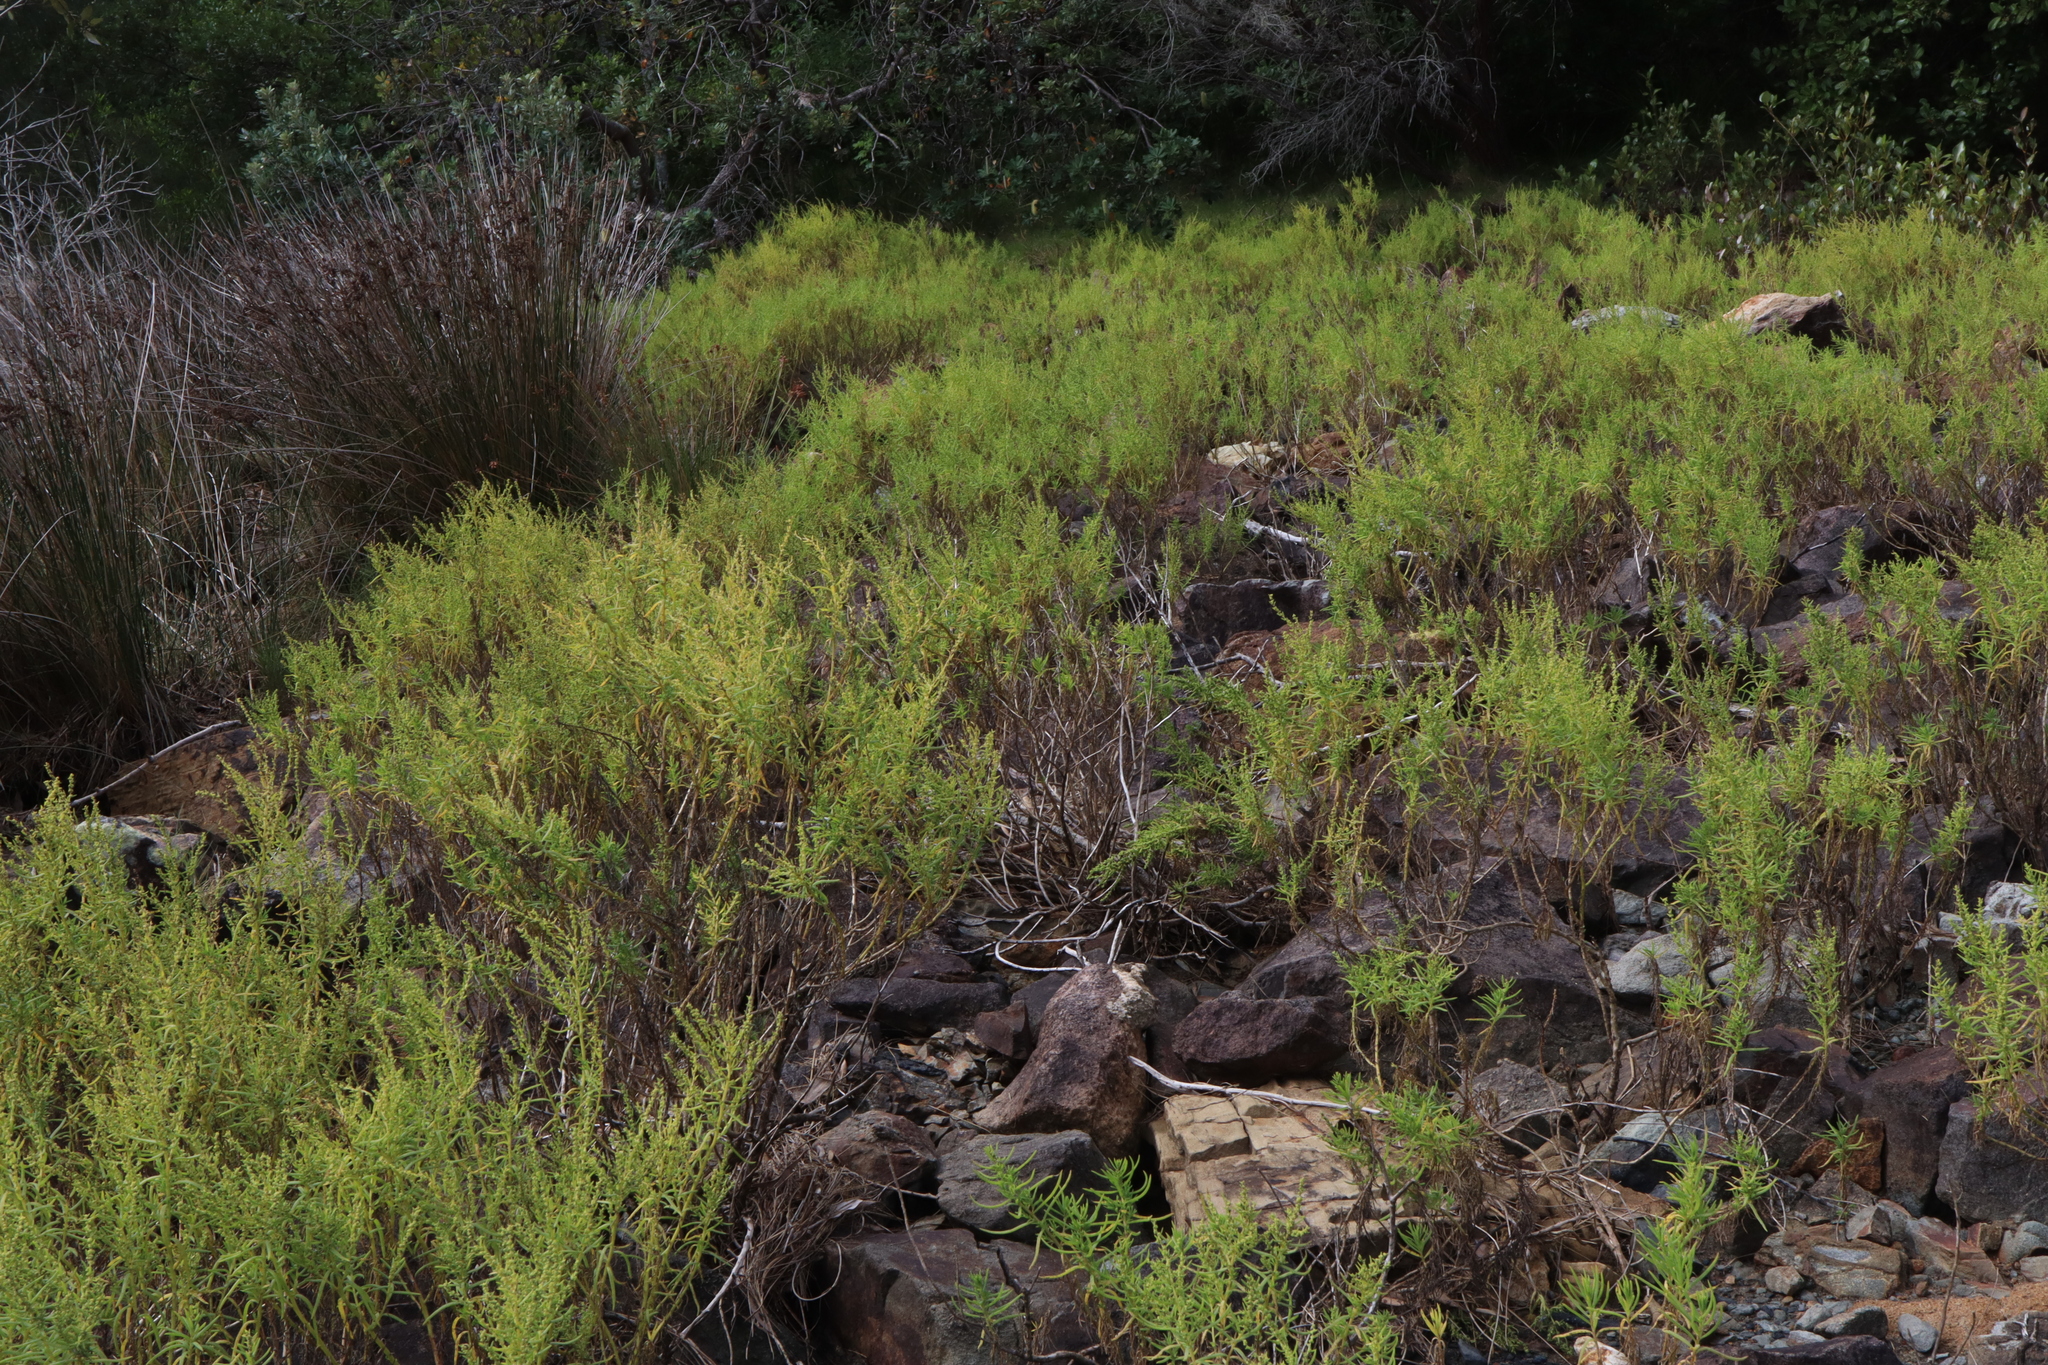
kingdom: Plantae
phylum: Tracheophyta
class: Magnoliopsida
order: Caryophyllales
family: Amaranthaceae
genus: Suaeda
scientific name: Suaeda australis
